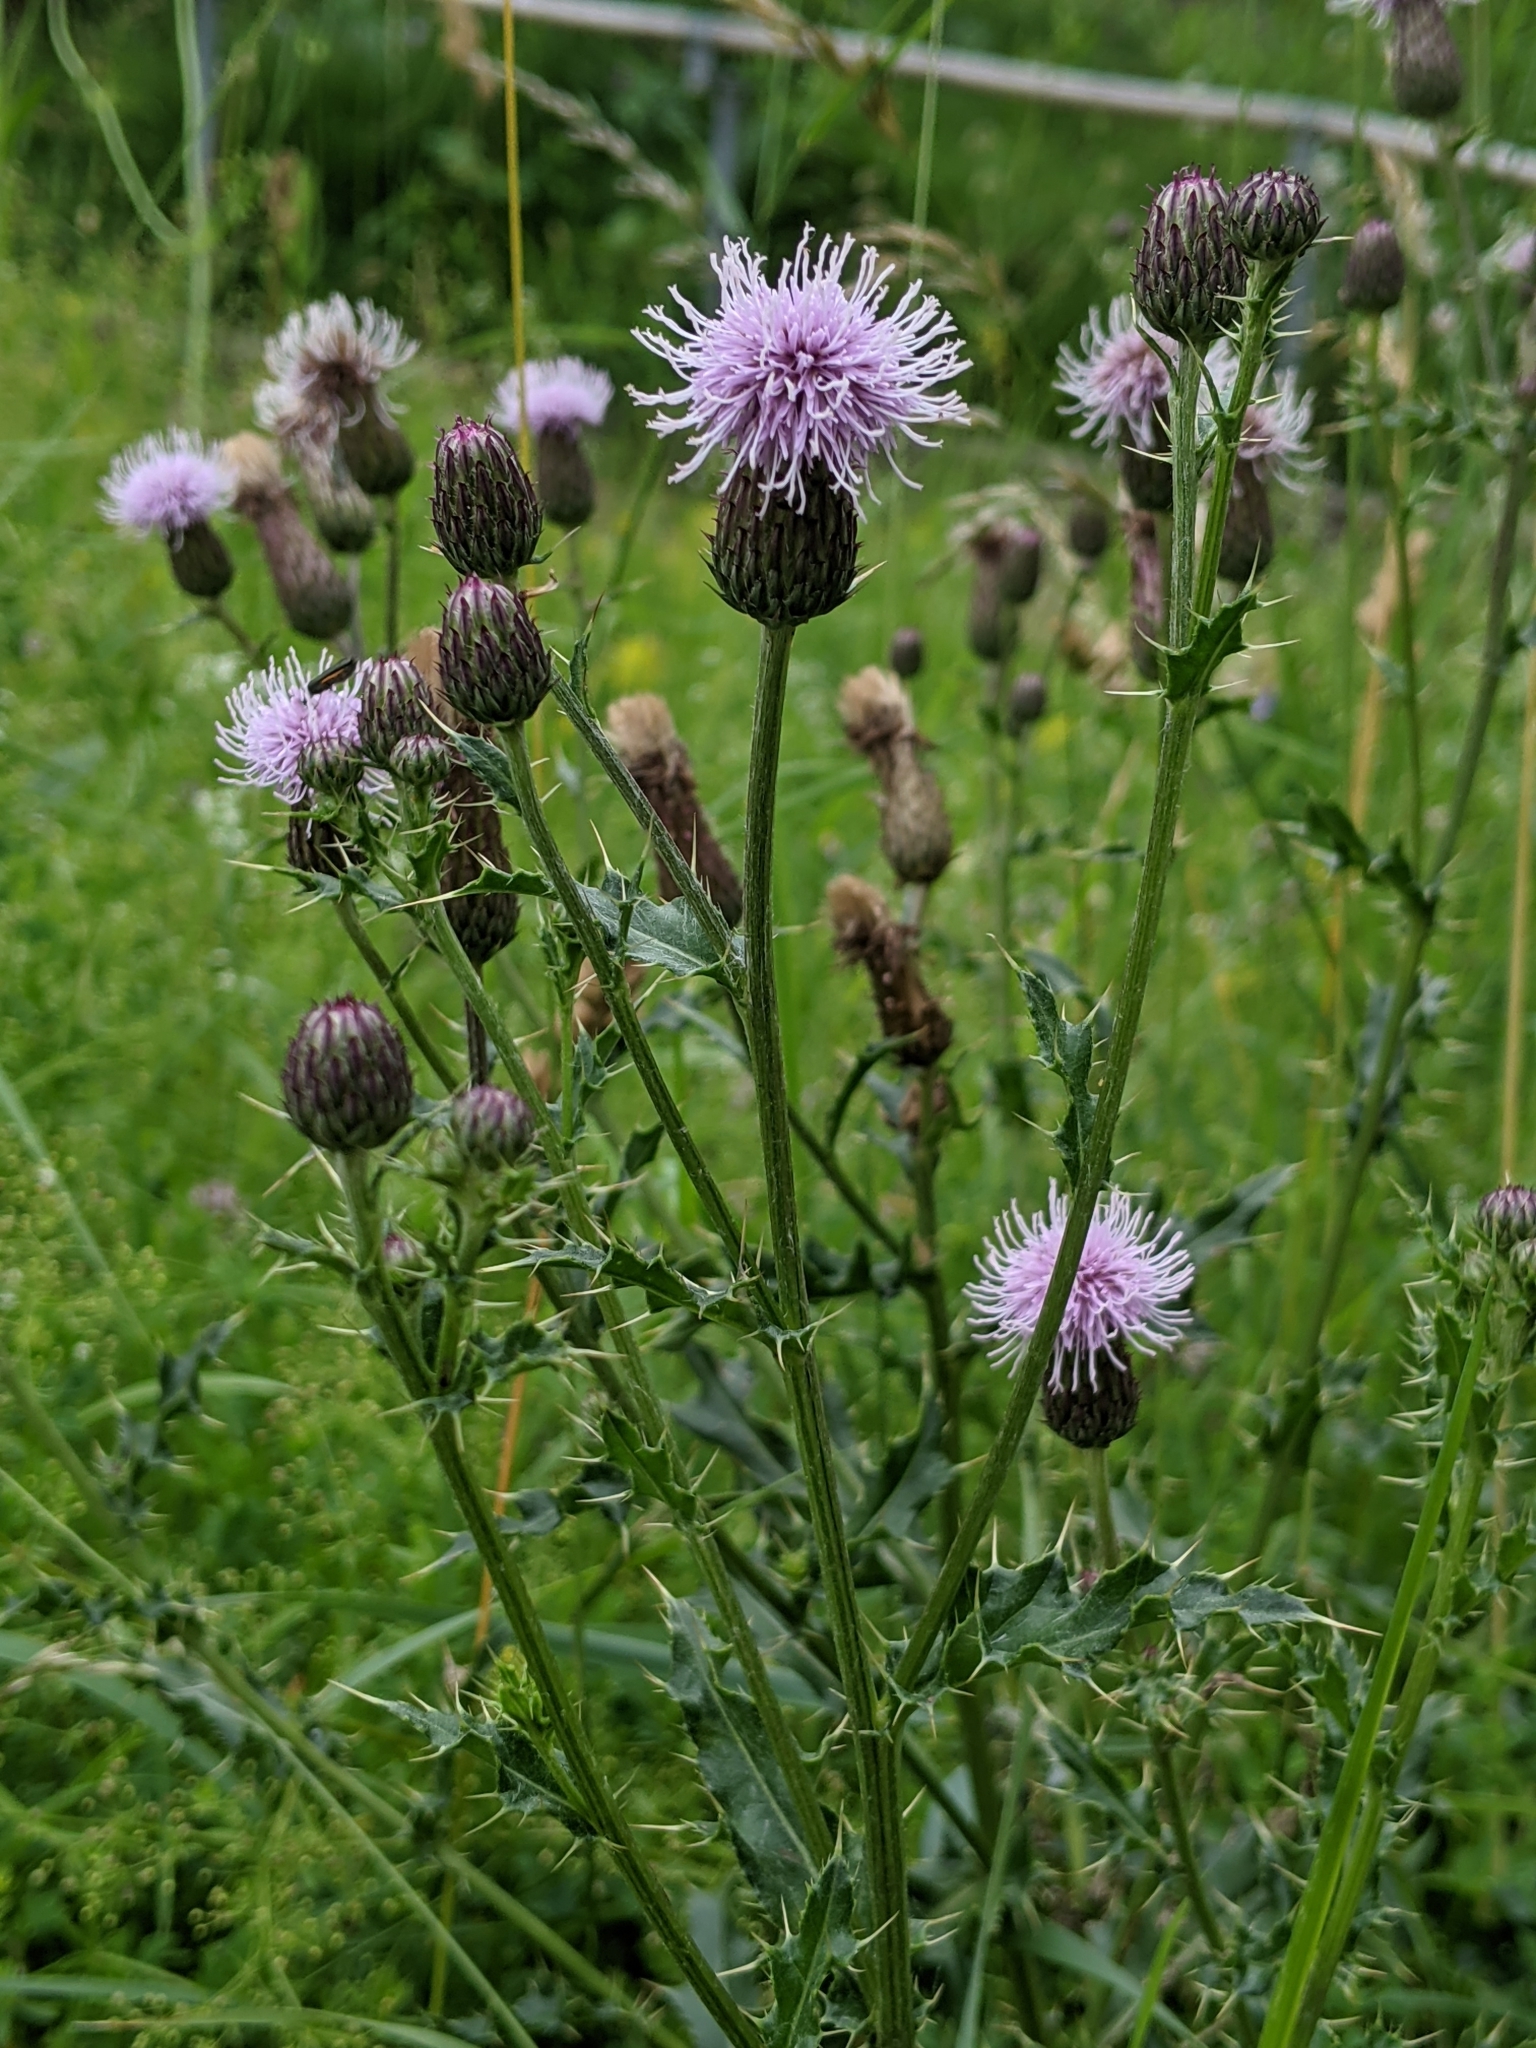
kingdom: Plantae
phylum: Tracheophyta
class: Magnoliopsida
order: Asterales
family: Asteraceae
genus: Cirsium
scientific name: Cirsium arvense
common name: Creeping thistle
